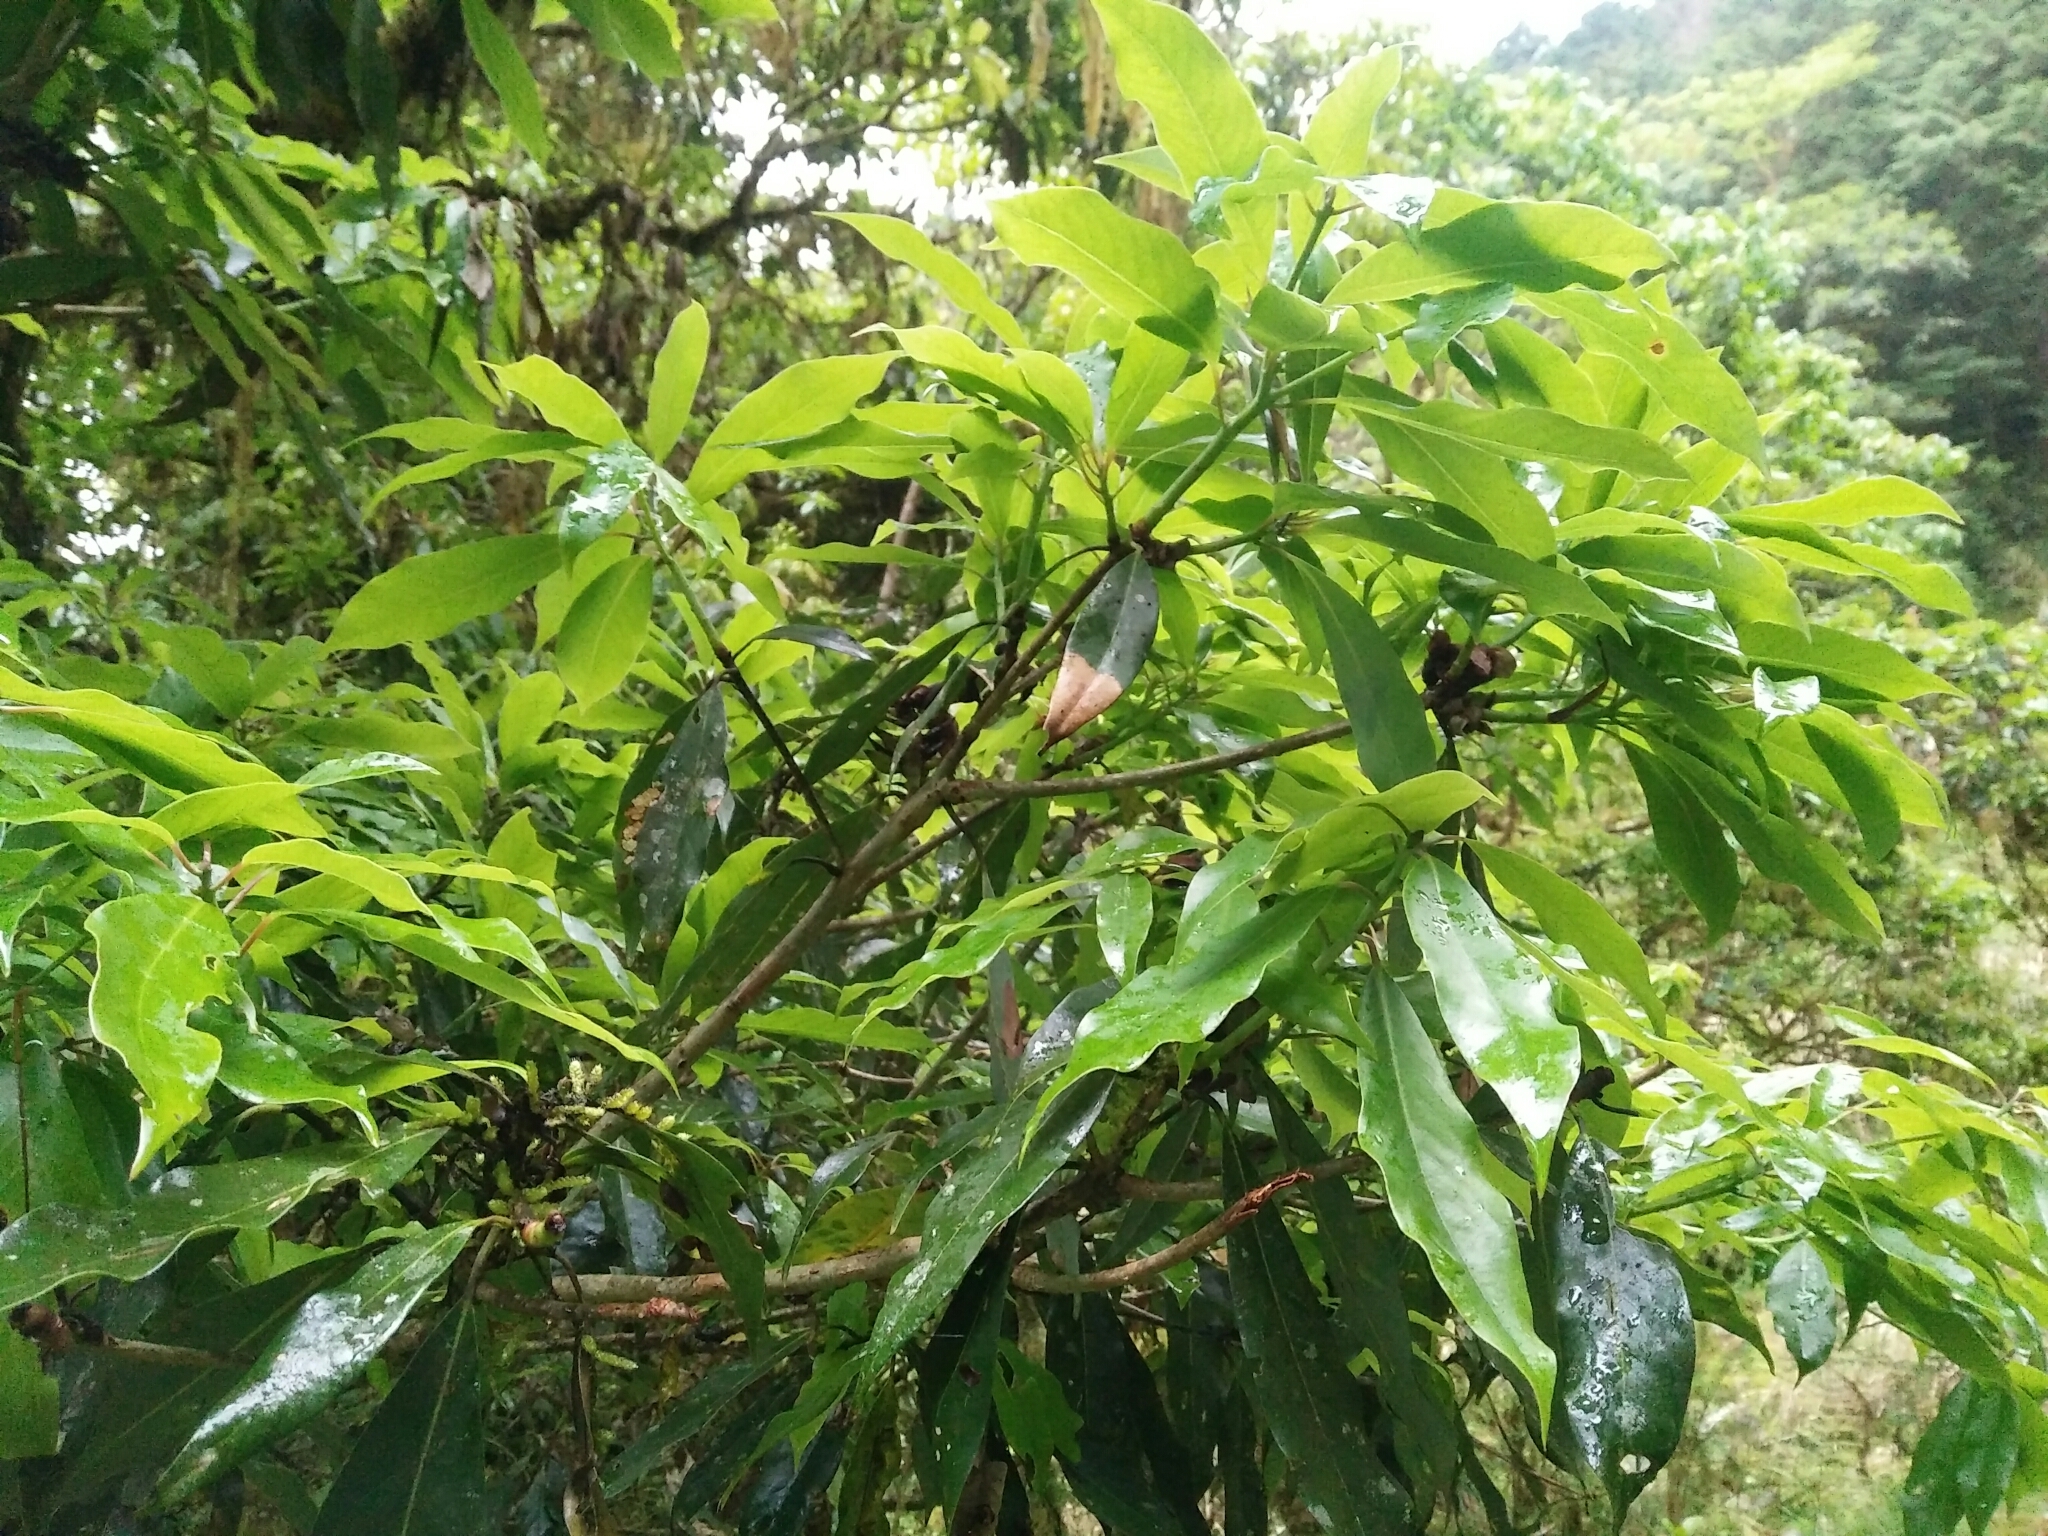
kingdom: Plantae
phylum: Tracheophyta
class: Magnoliopsida
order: Laurales
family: Lauraceae
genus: Machilus
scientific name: Machilus japonica
